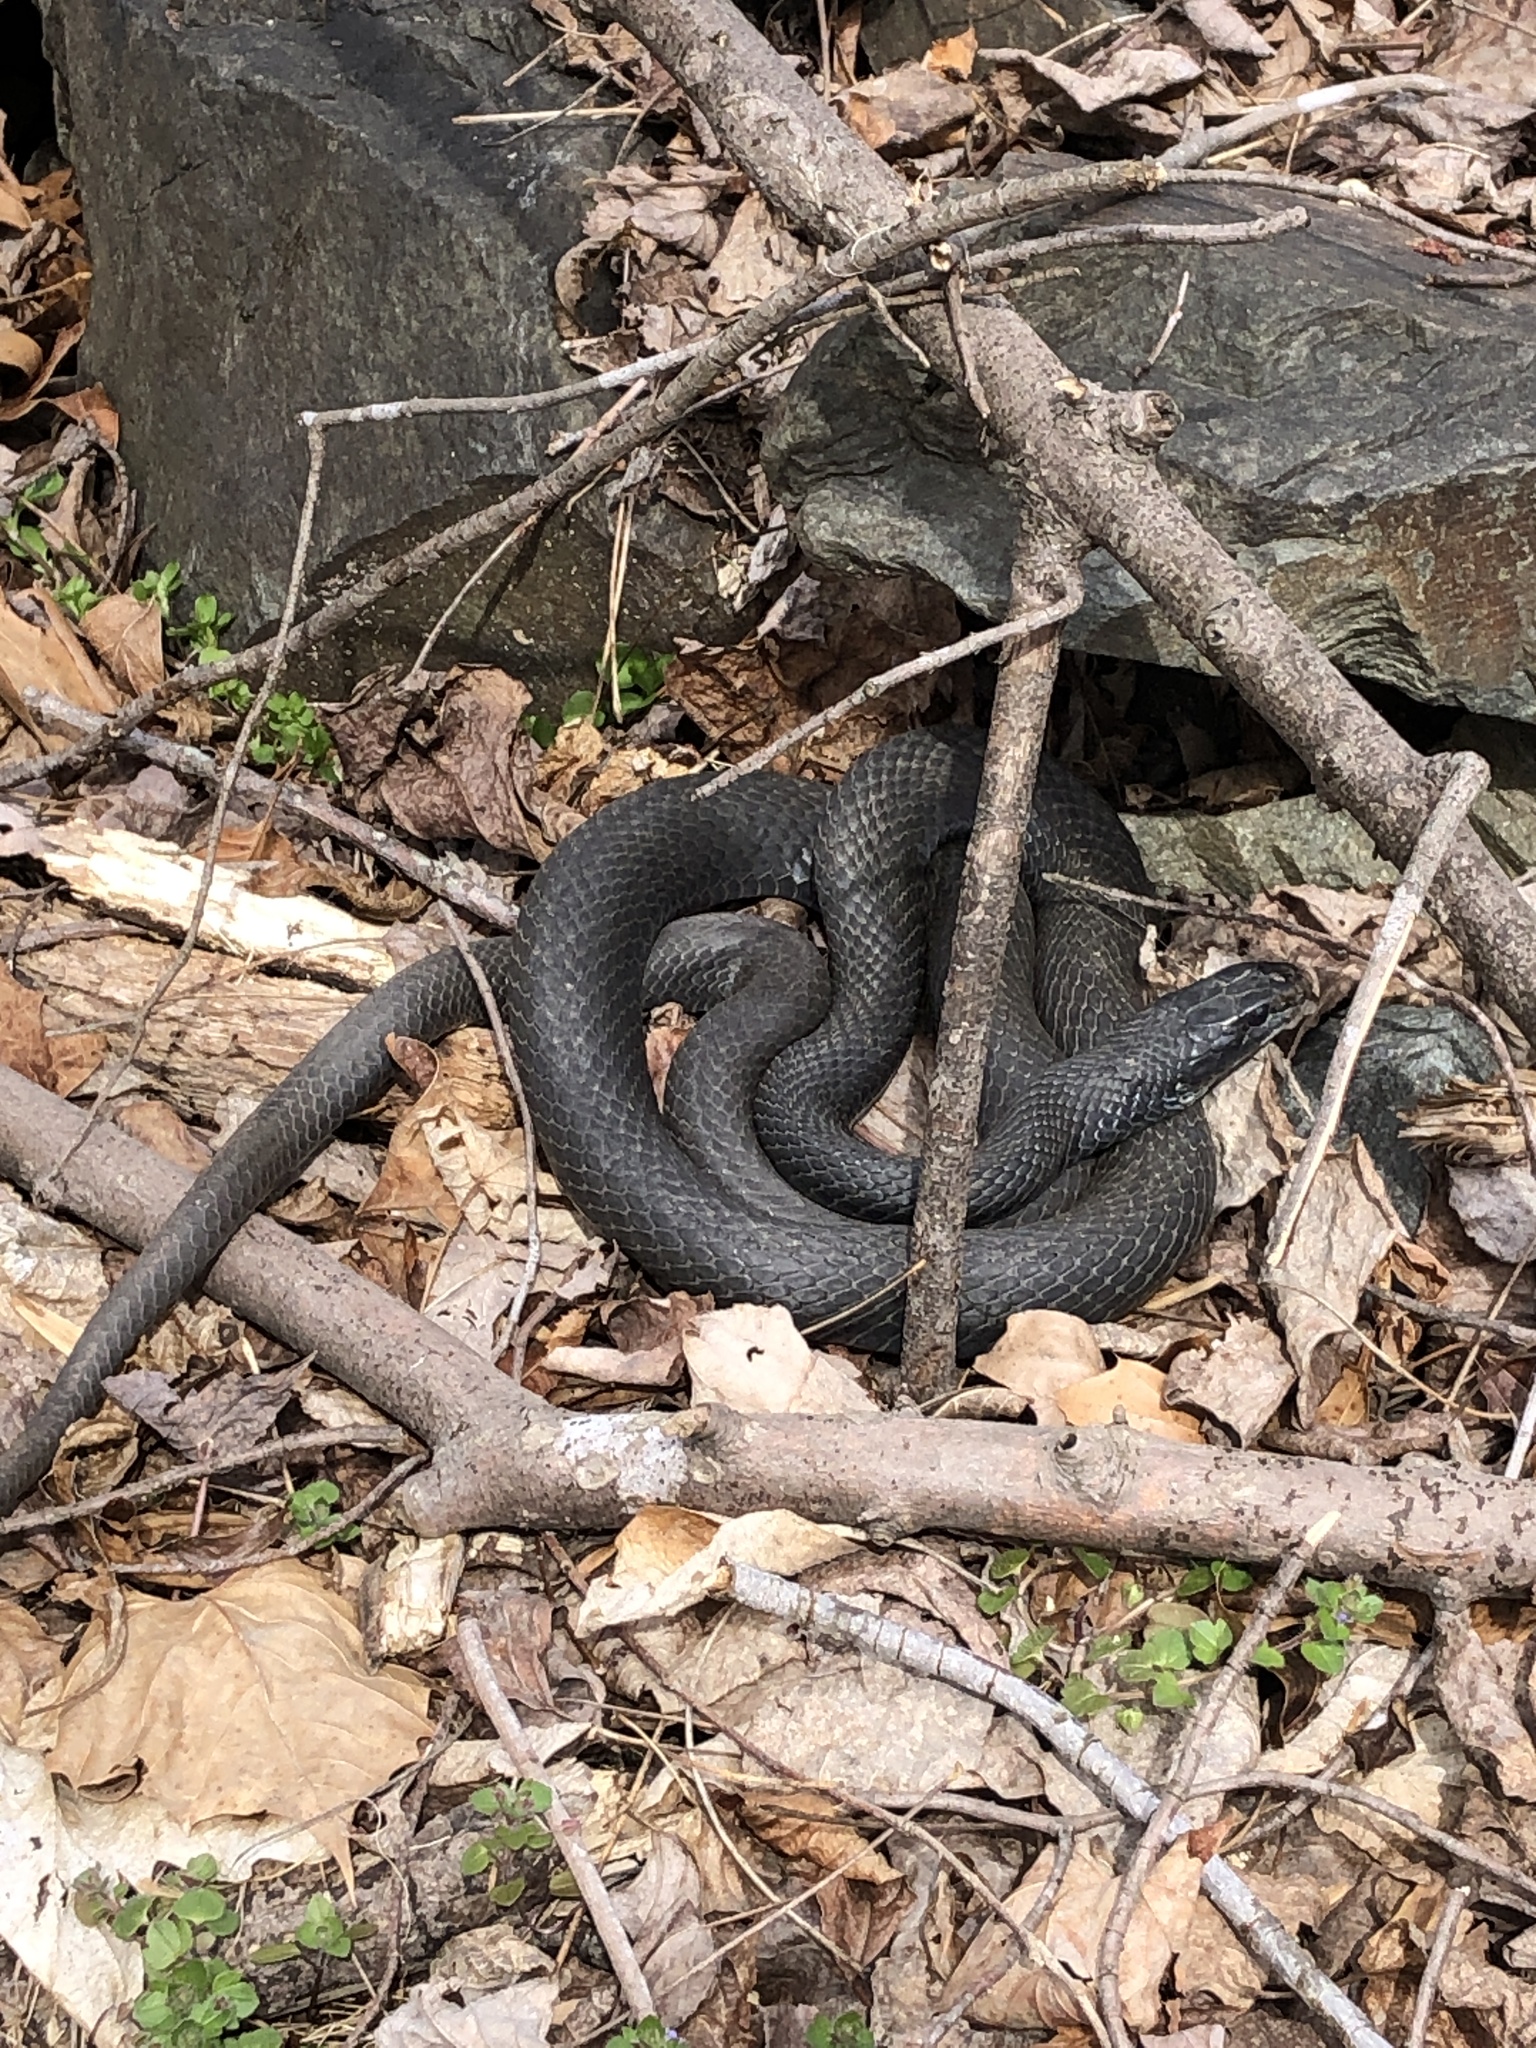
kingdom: Animalia
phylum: Chordata
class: Squamata
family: Colubridae
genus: Coluber
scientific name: Coluber constrictor
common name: Eastern racer
